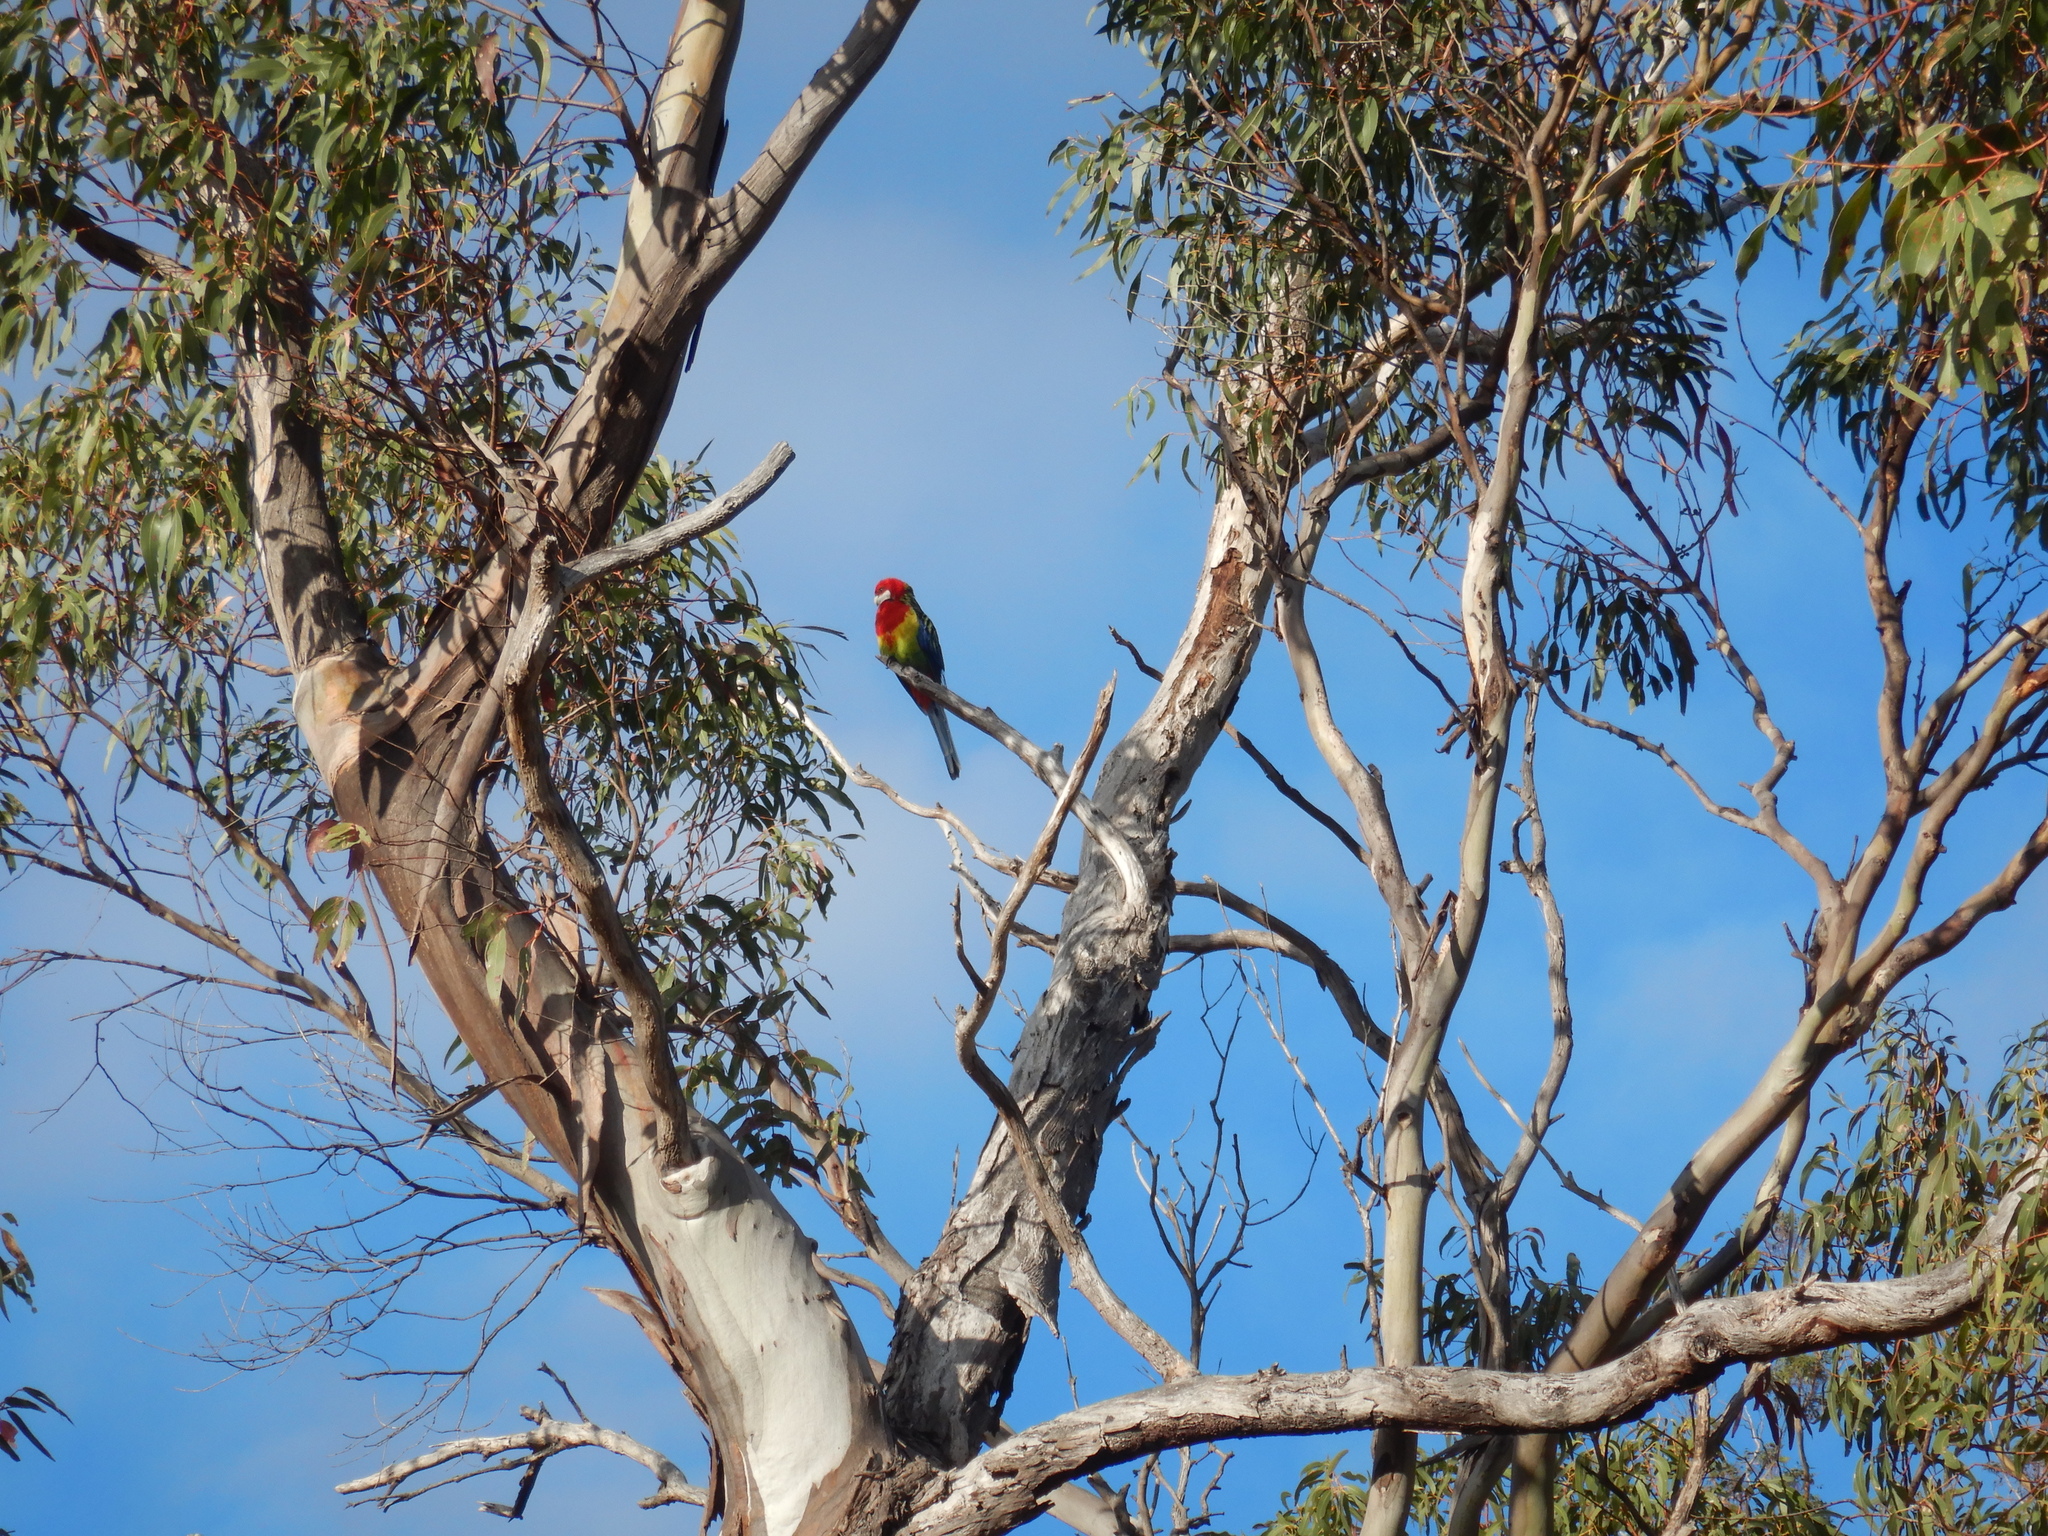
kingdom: Animalia
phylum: Chordata
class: Aves
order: Psittaciformes
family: Psittacidae
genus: Platycercus
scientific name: Platycercus eximius
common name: Eastern rosella
